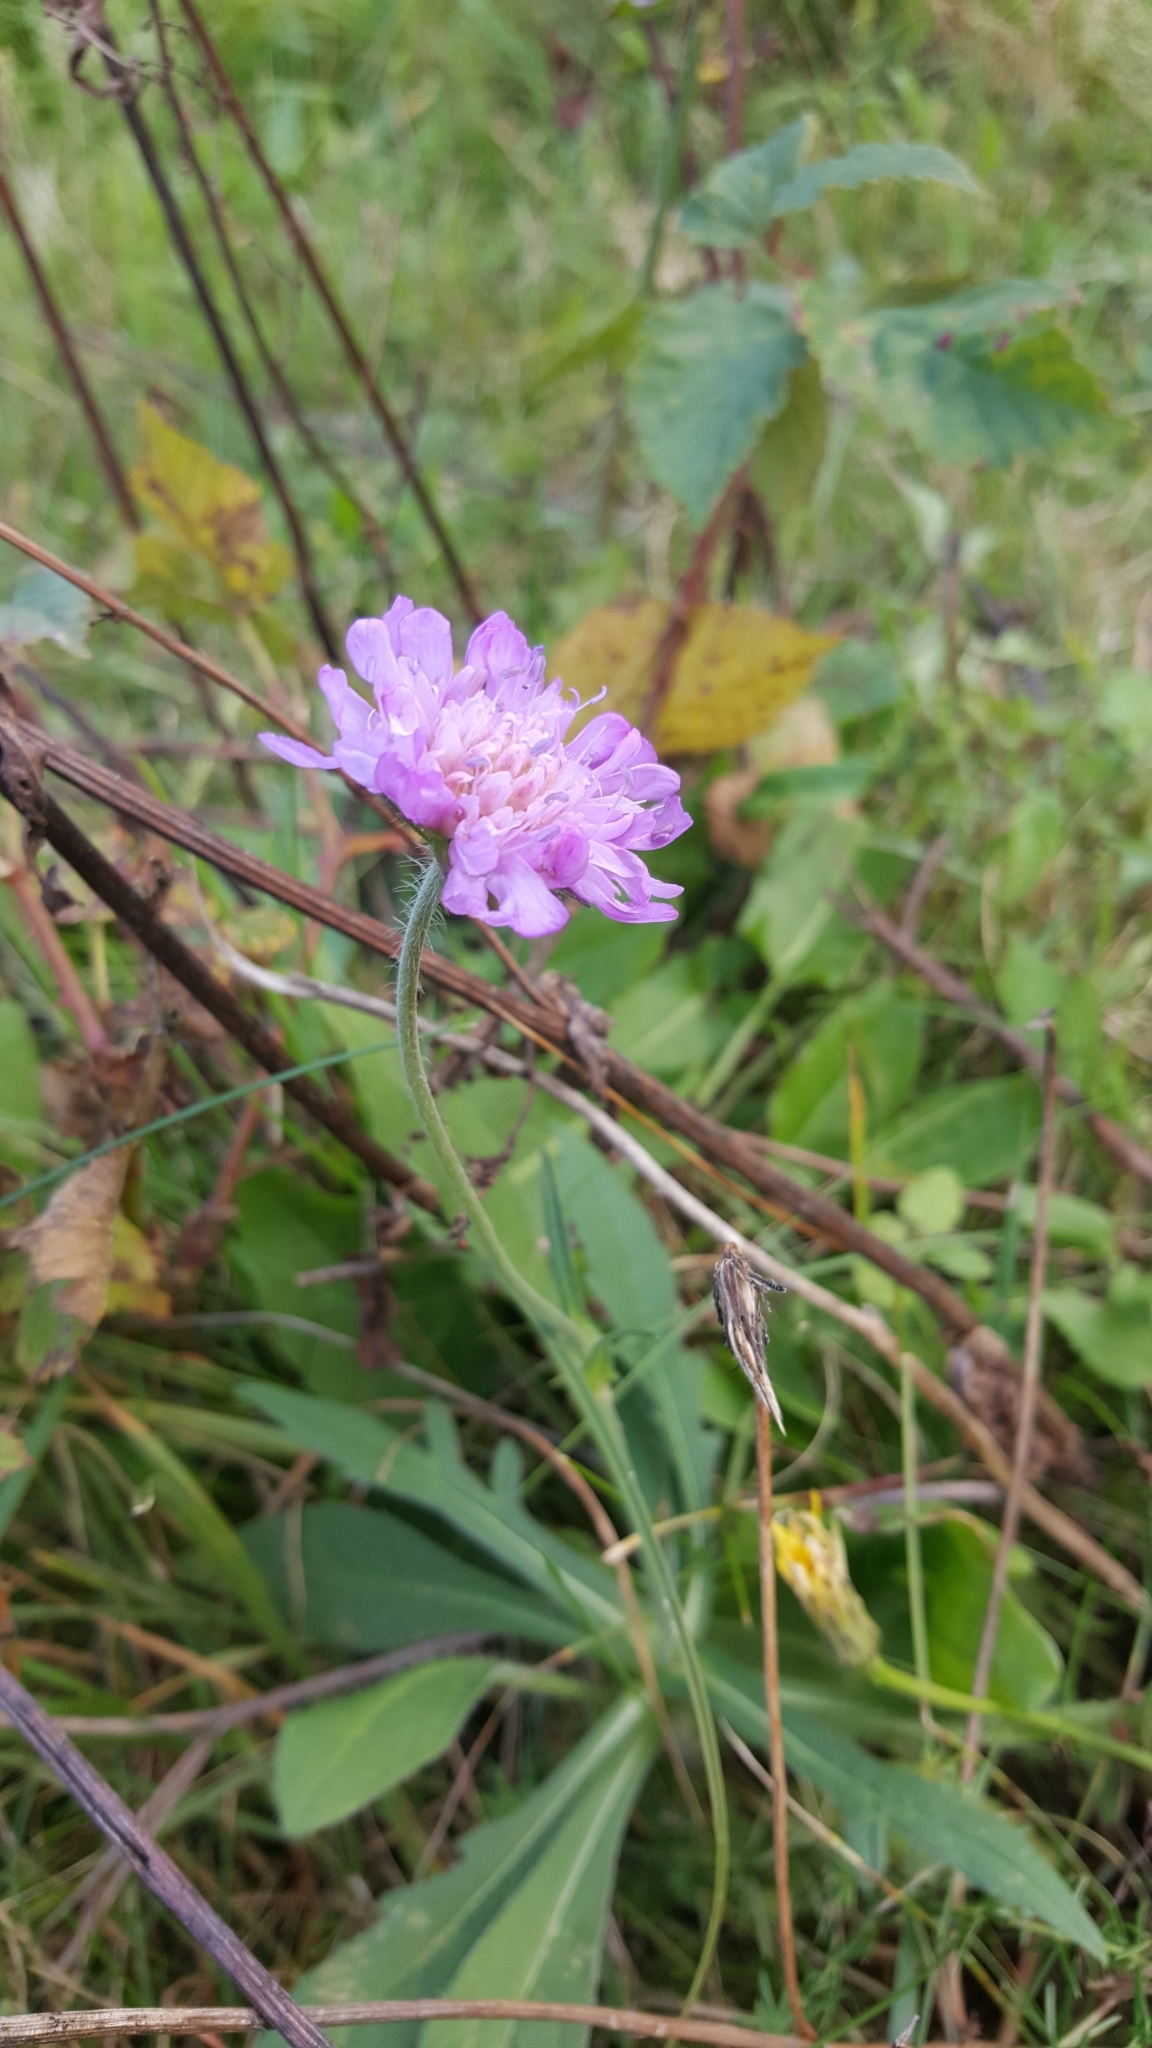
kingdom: Plantae
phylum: Tracheophyta
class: Magnoliopsida
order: Dipsacales
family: Caprifoliaceae
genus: Knautia
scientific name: Knautia arvensis
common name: Field scabiosa
